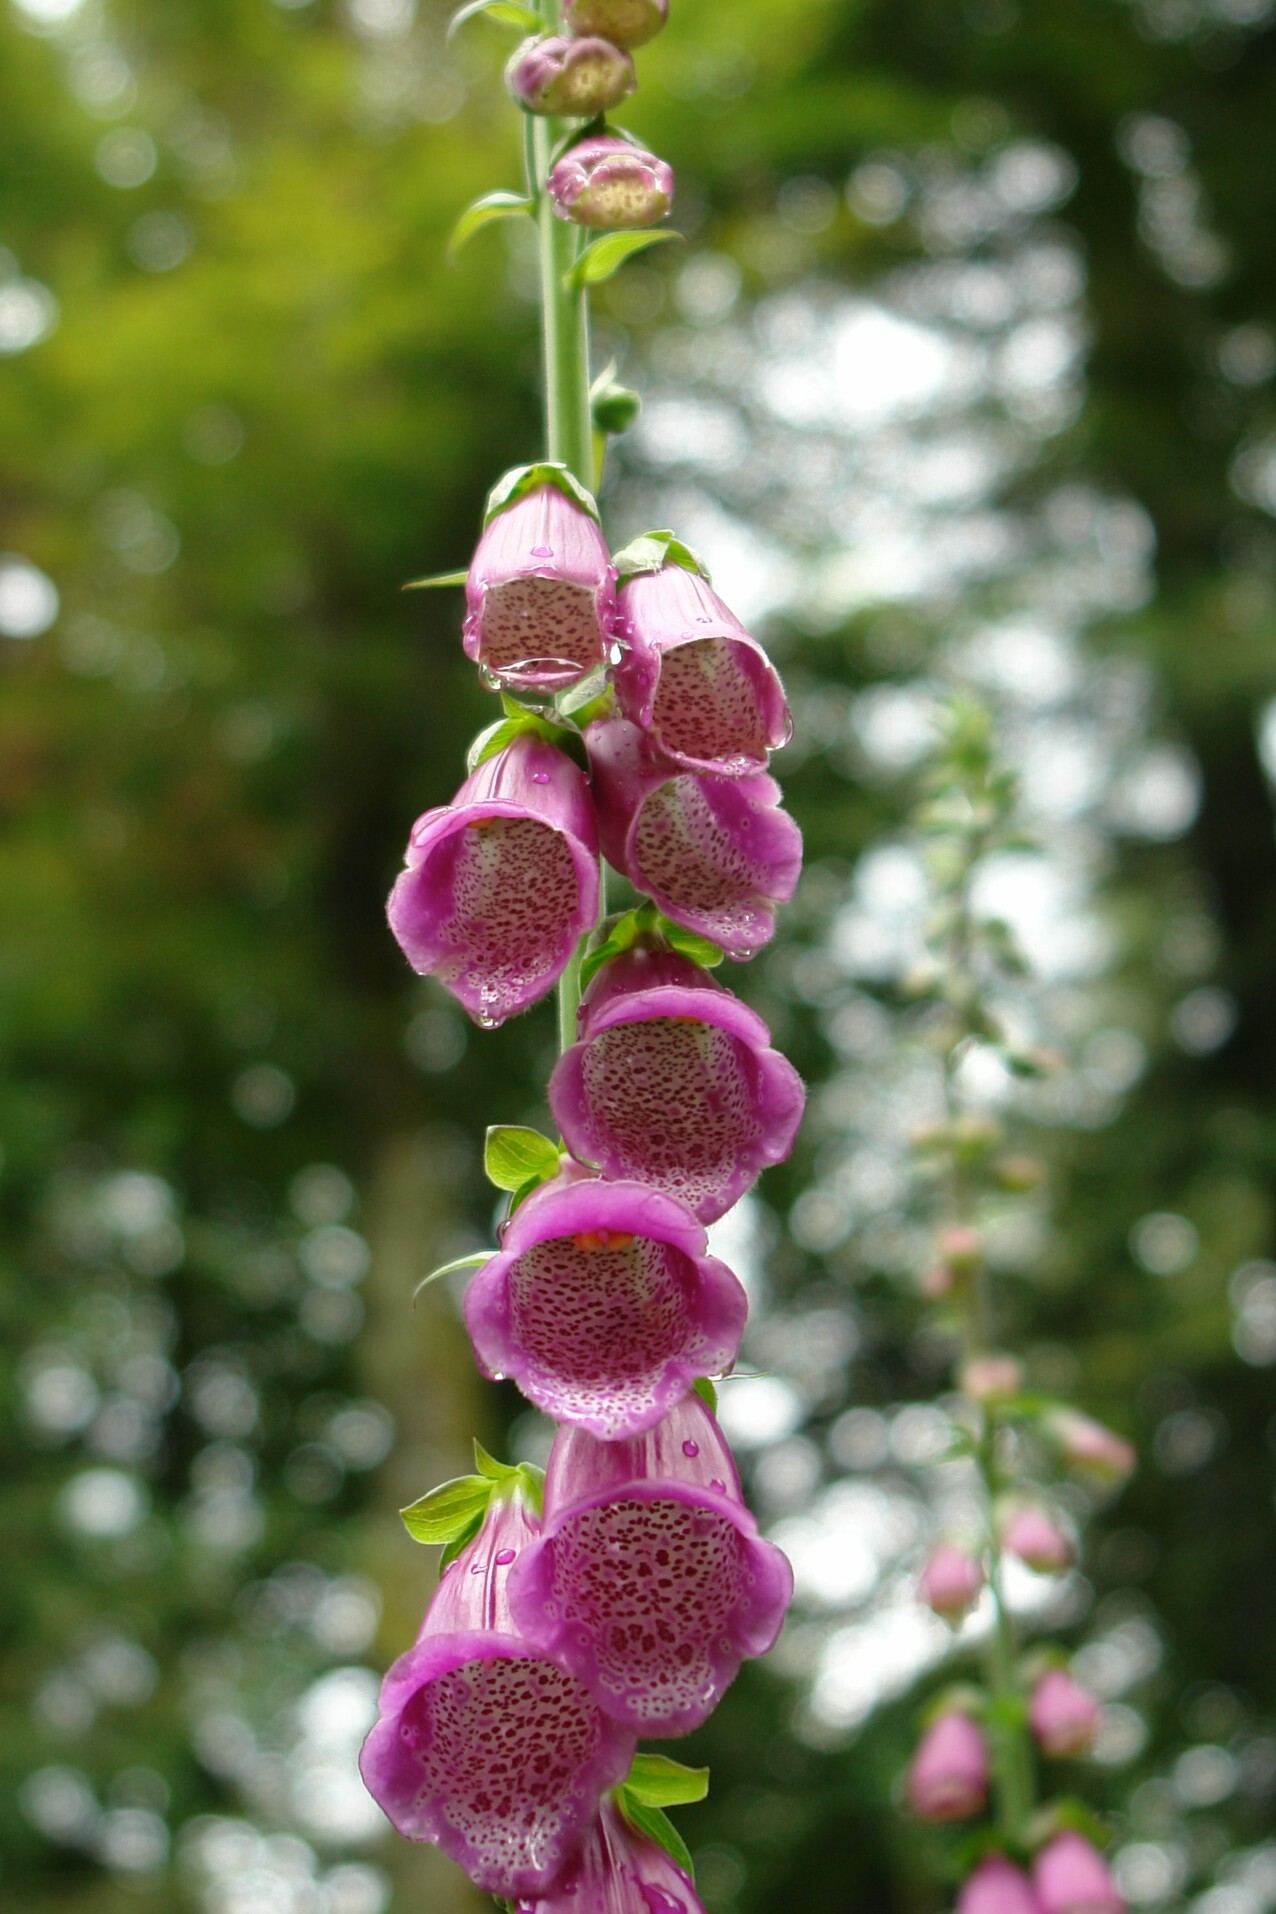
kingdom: Plantae
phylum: Tracheophyta
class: Magnoliopsida
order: Lamiales
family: Plantaginaceae
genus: Digitalis
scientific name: Digitalis purpurea
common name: Foxglove
